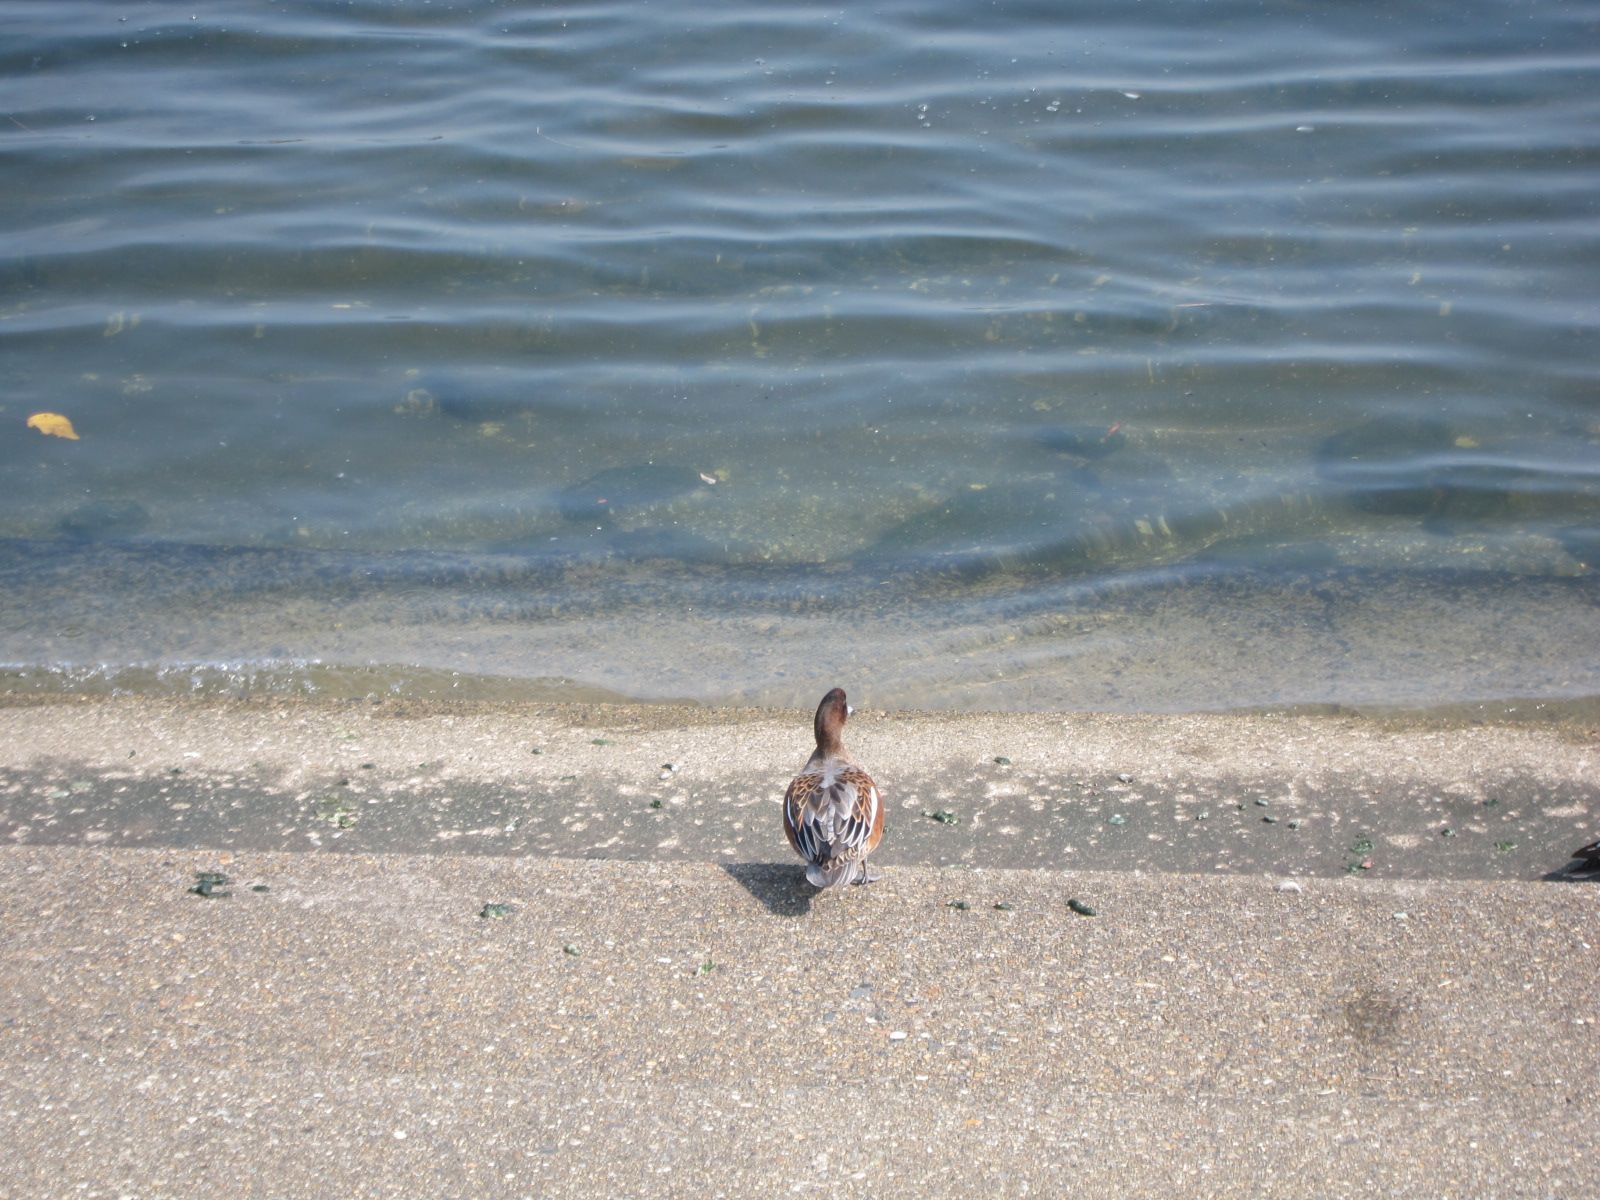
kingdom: Animalia
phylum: Chordata
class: Aves
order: Anseriformes
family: Anatidae
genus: Mareca
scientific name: Mareca penelope
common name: Eurasian wigeon
